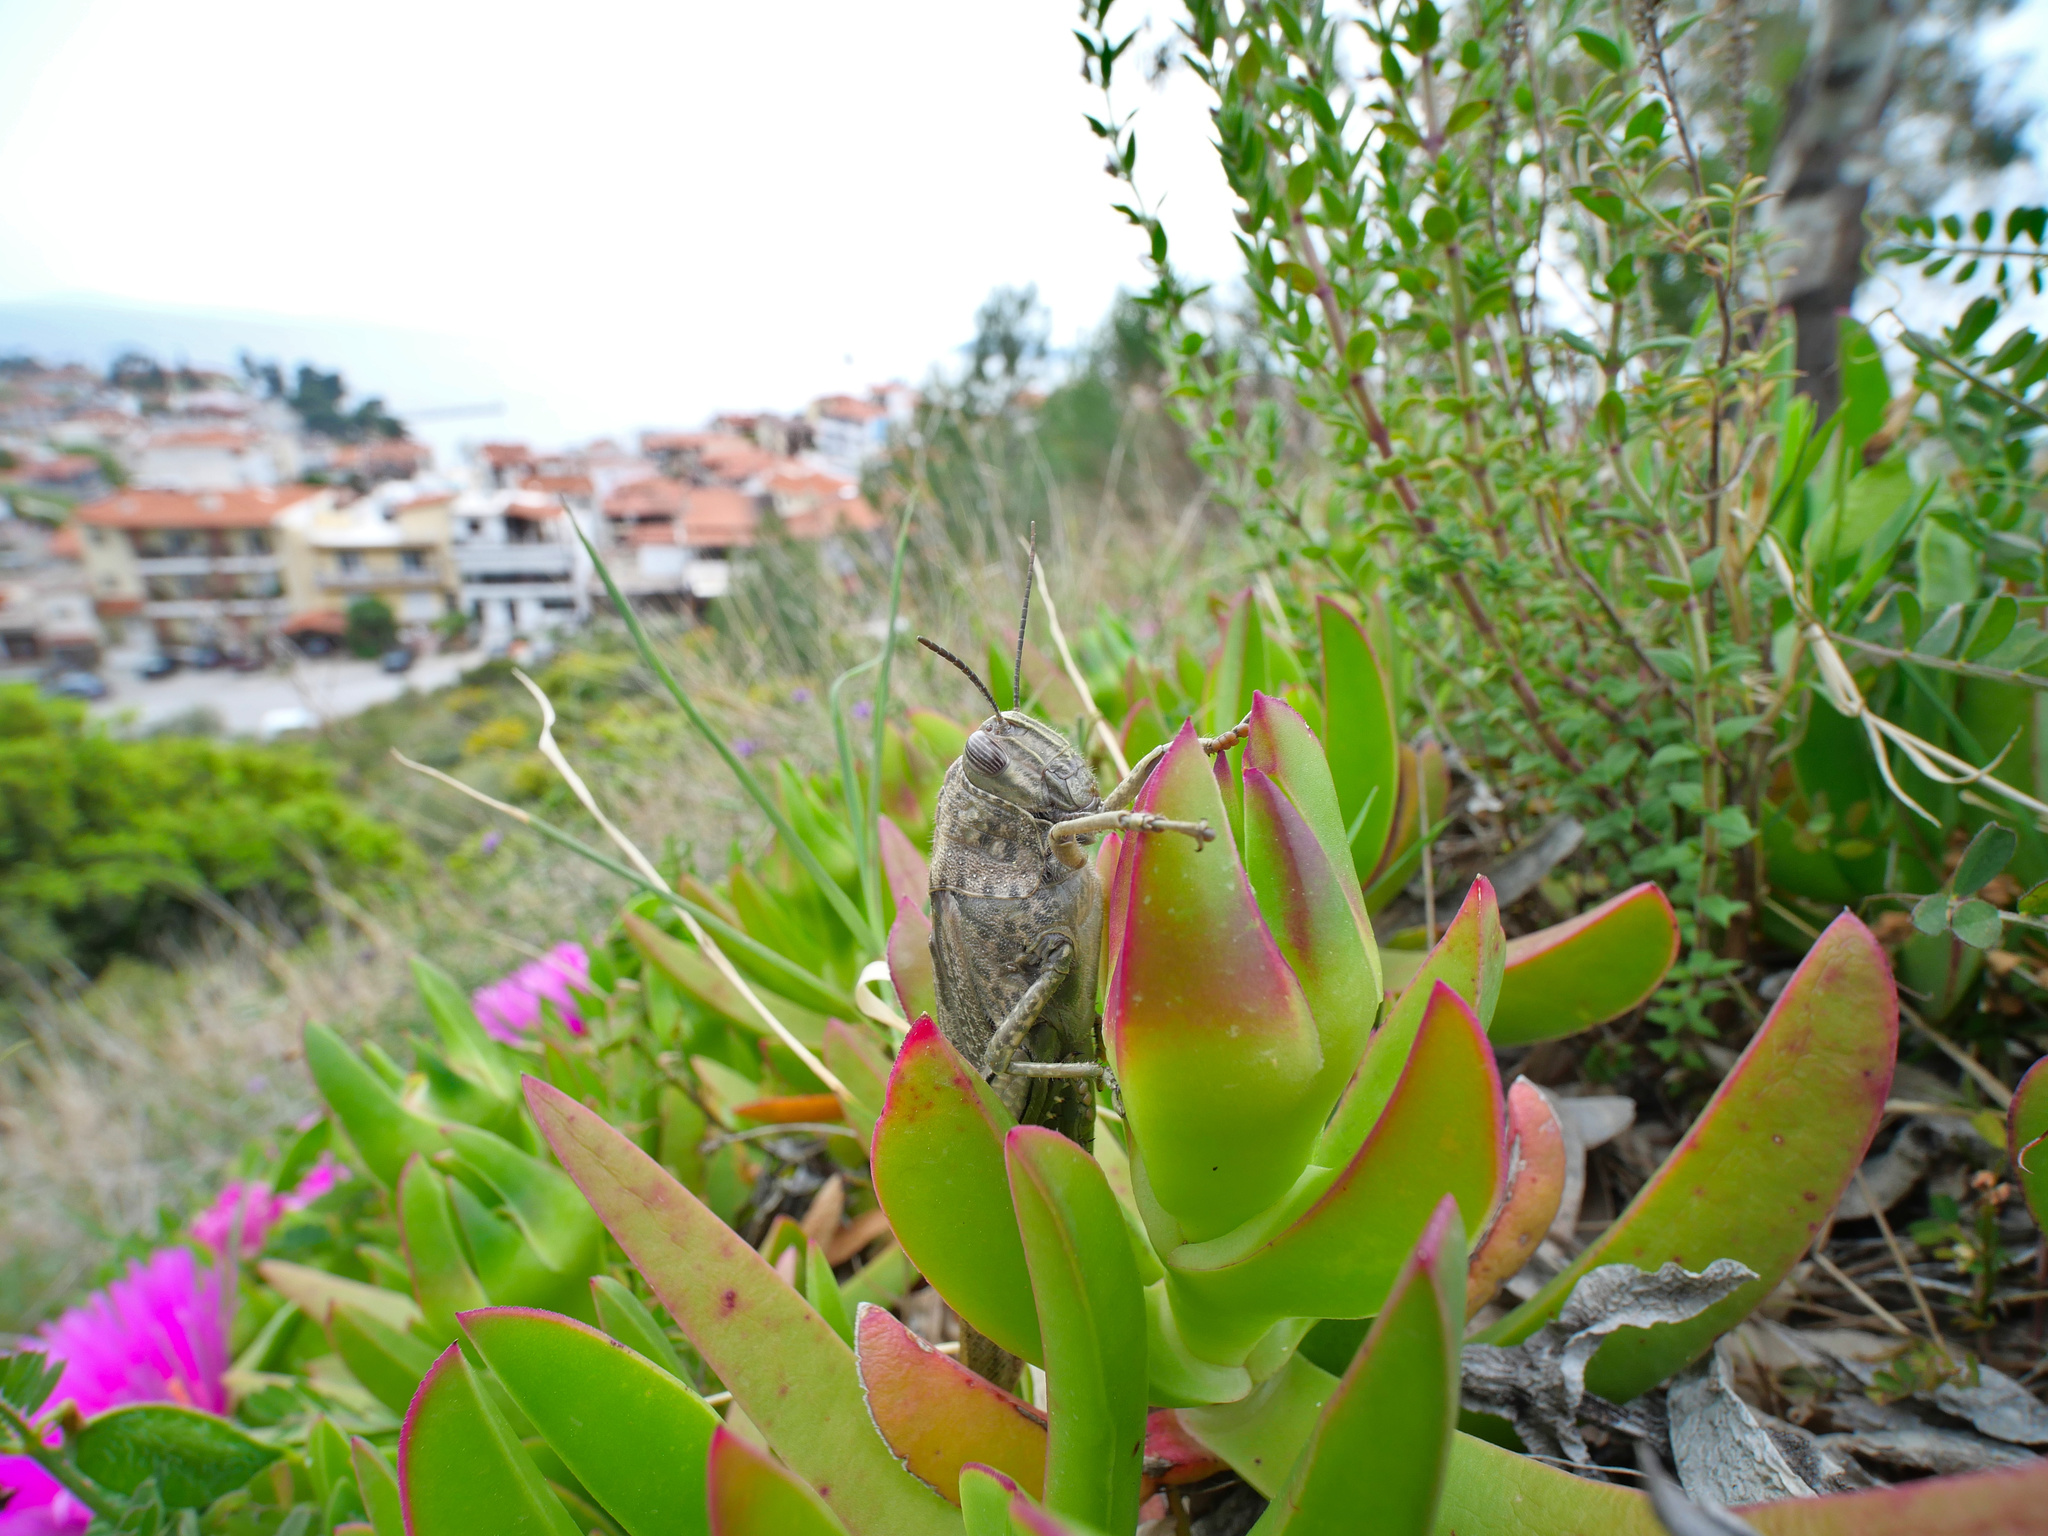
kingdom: Animalia
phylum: Arthropoda
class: Insecta
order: Orthoptera
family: Acrididae
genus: Anacridium
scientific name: Anacridium aegyptium
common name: Egyptian grasshopper
